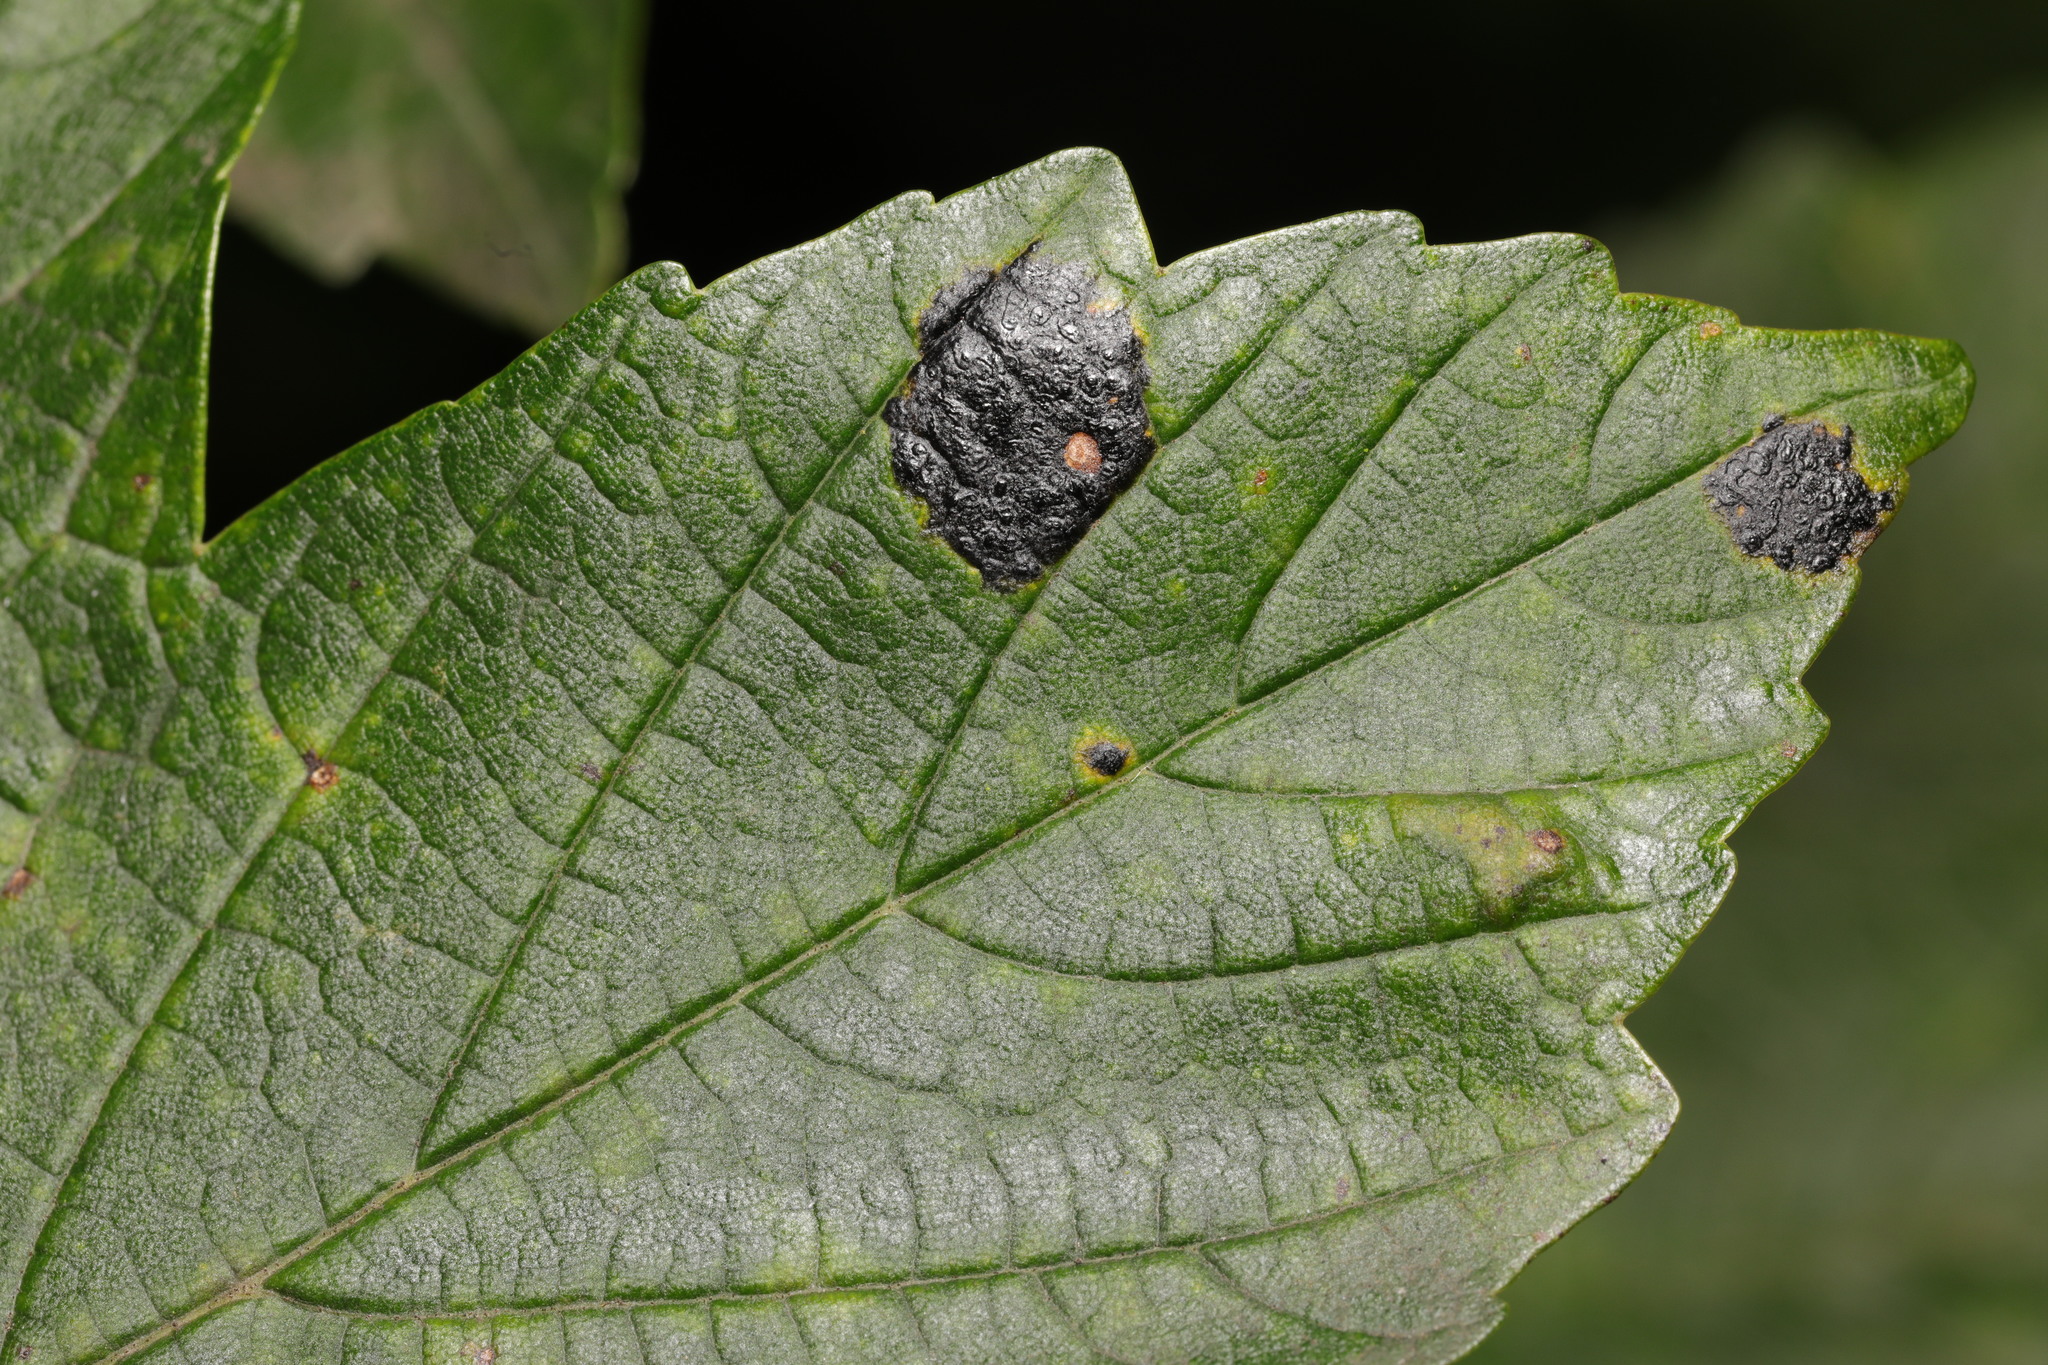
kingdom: Fungi
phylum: Ascomycota
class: Leotiomycetes
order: Rhytismatales
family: Rhytismataceae
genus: Rhytisma
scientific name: Rhytisma acerinum
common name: European tar spot
